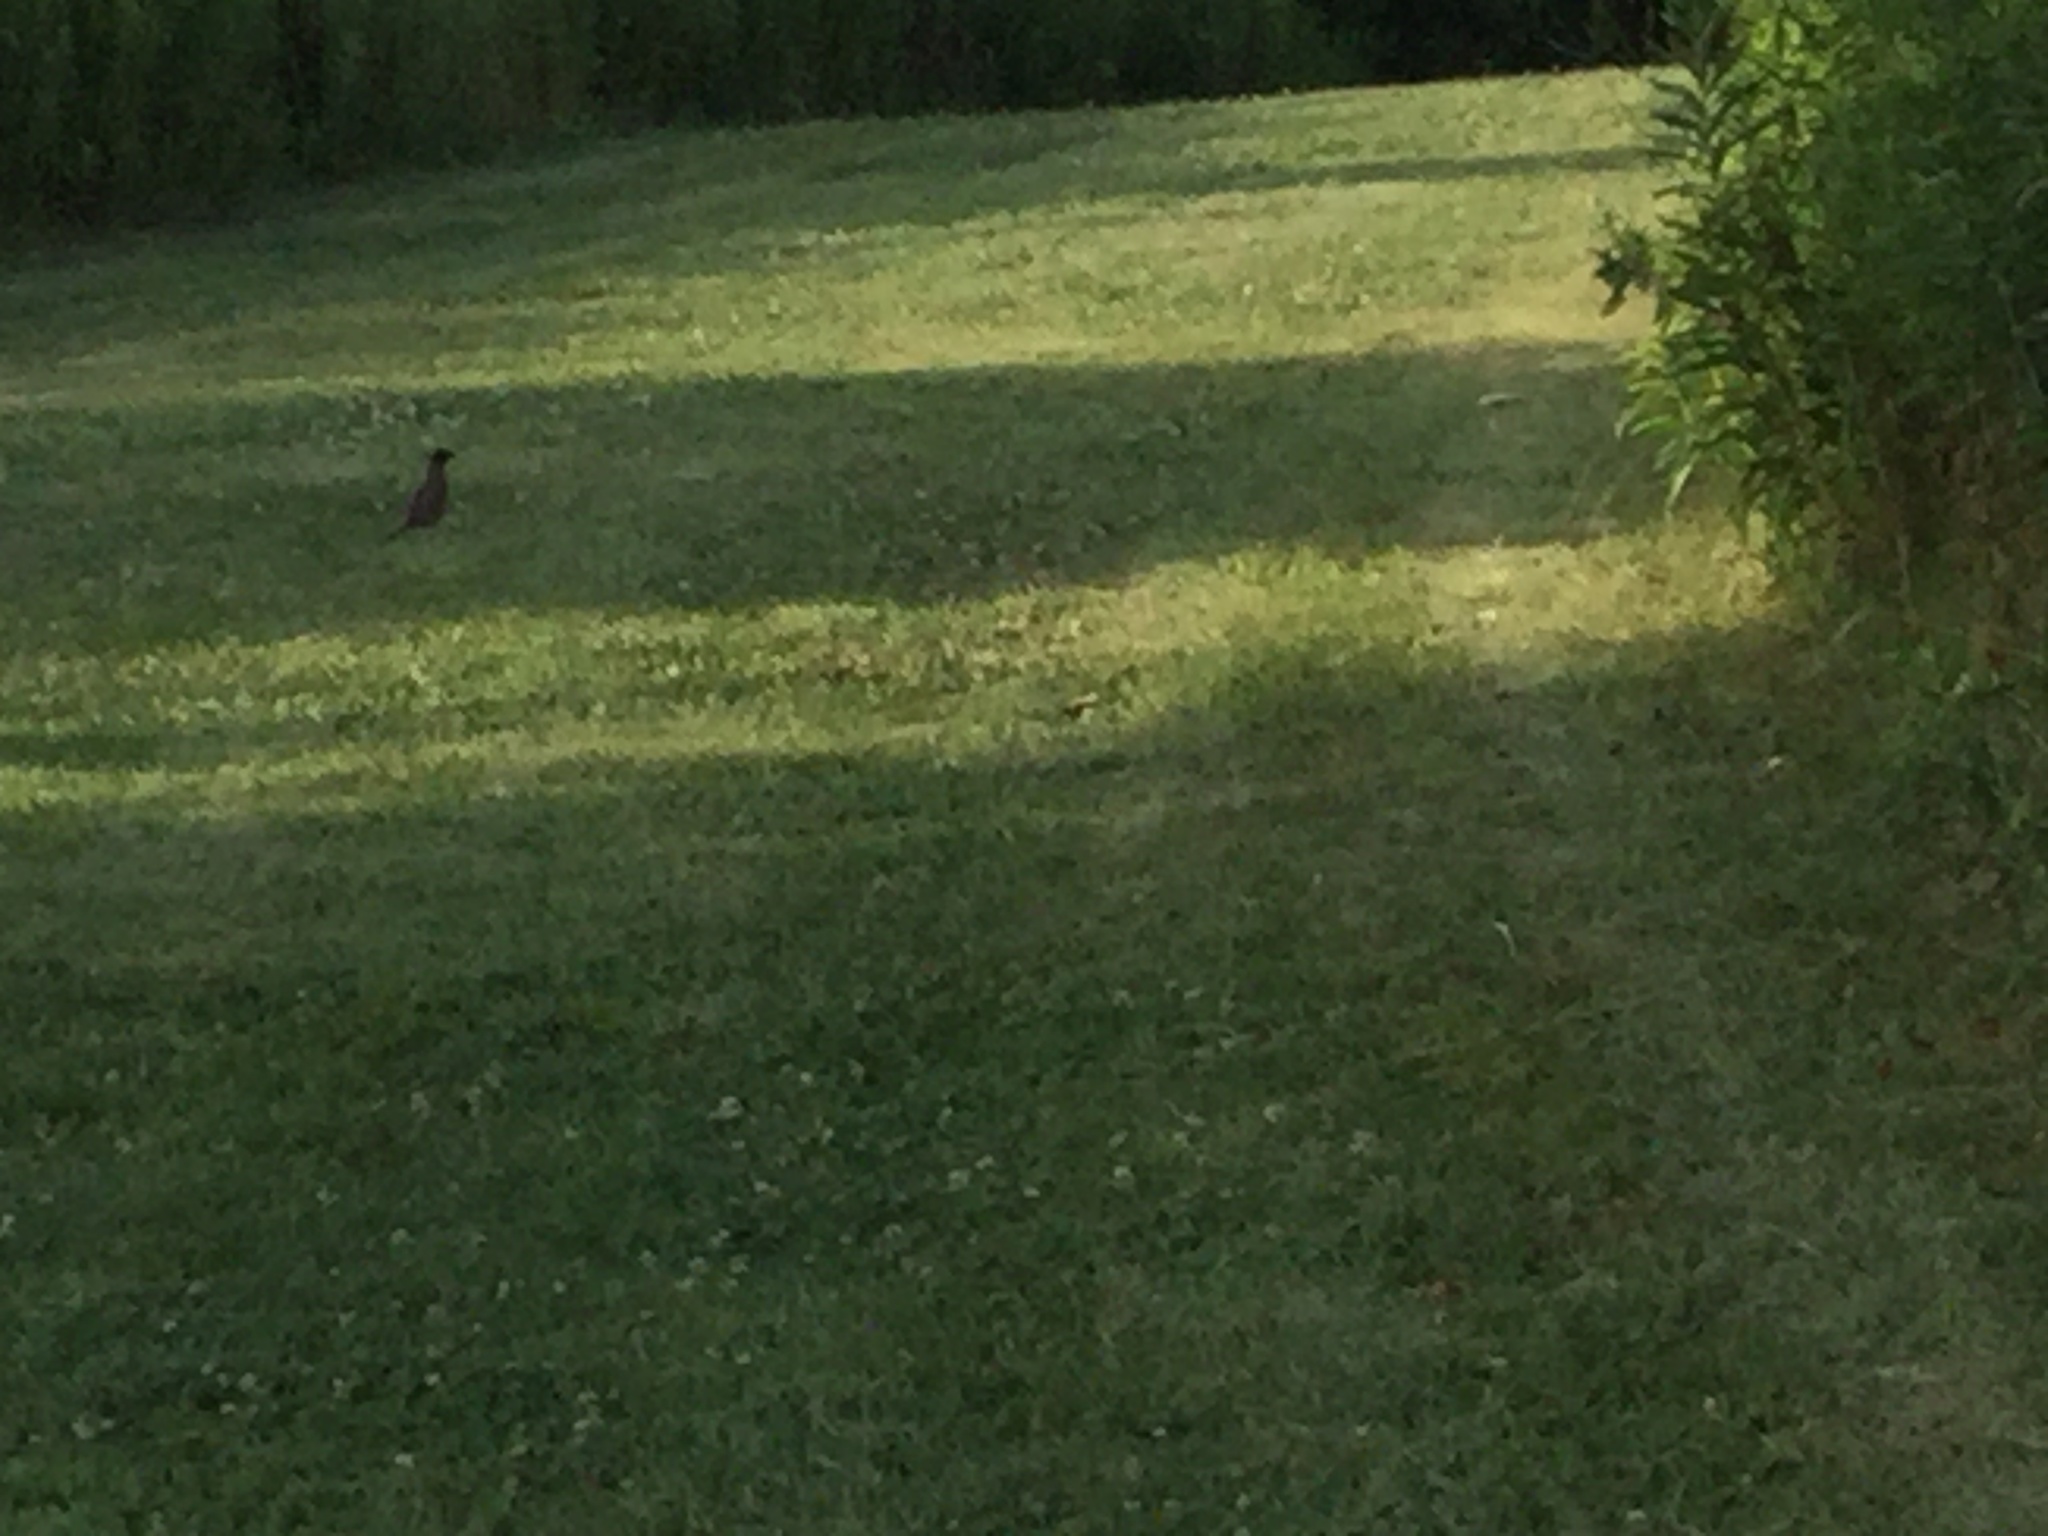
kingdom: Animalia
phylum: Chordata
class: Aves
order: Passeriformes
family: Turdidae
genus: Turdus
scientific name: Turdus migratorius
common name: American robin
